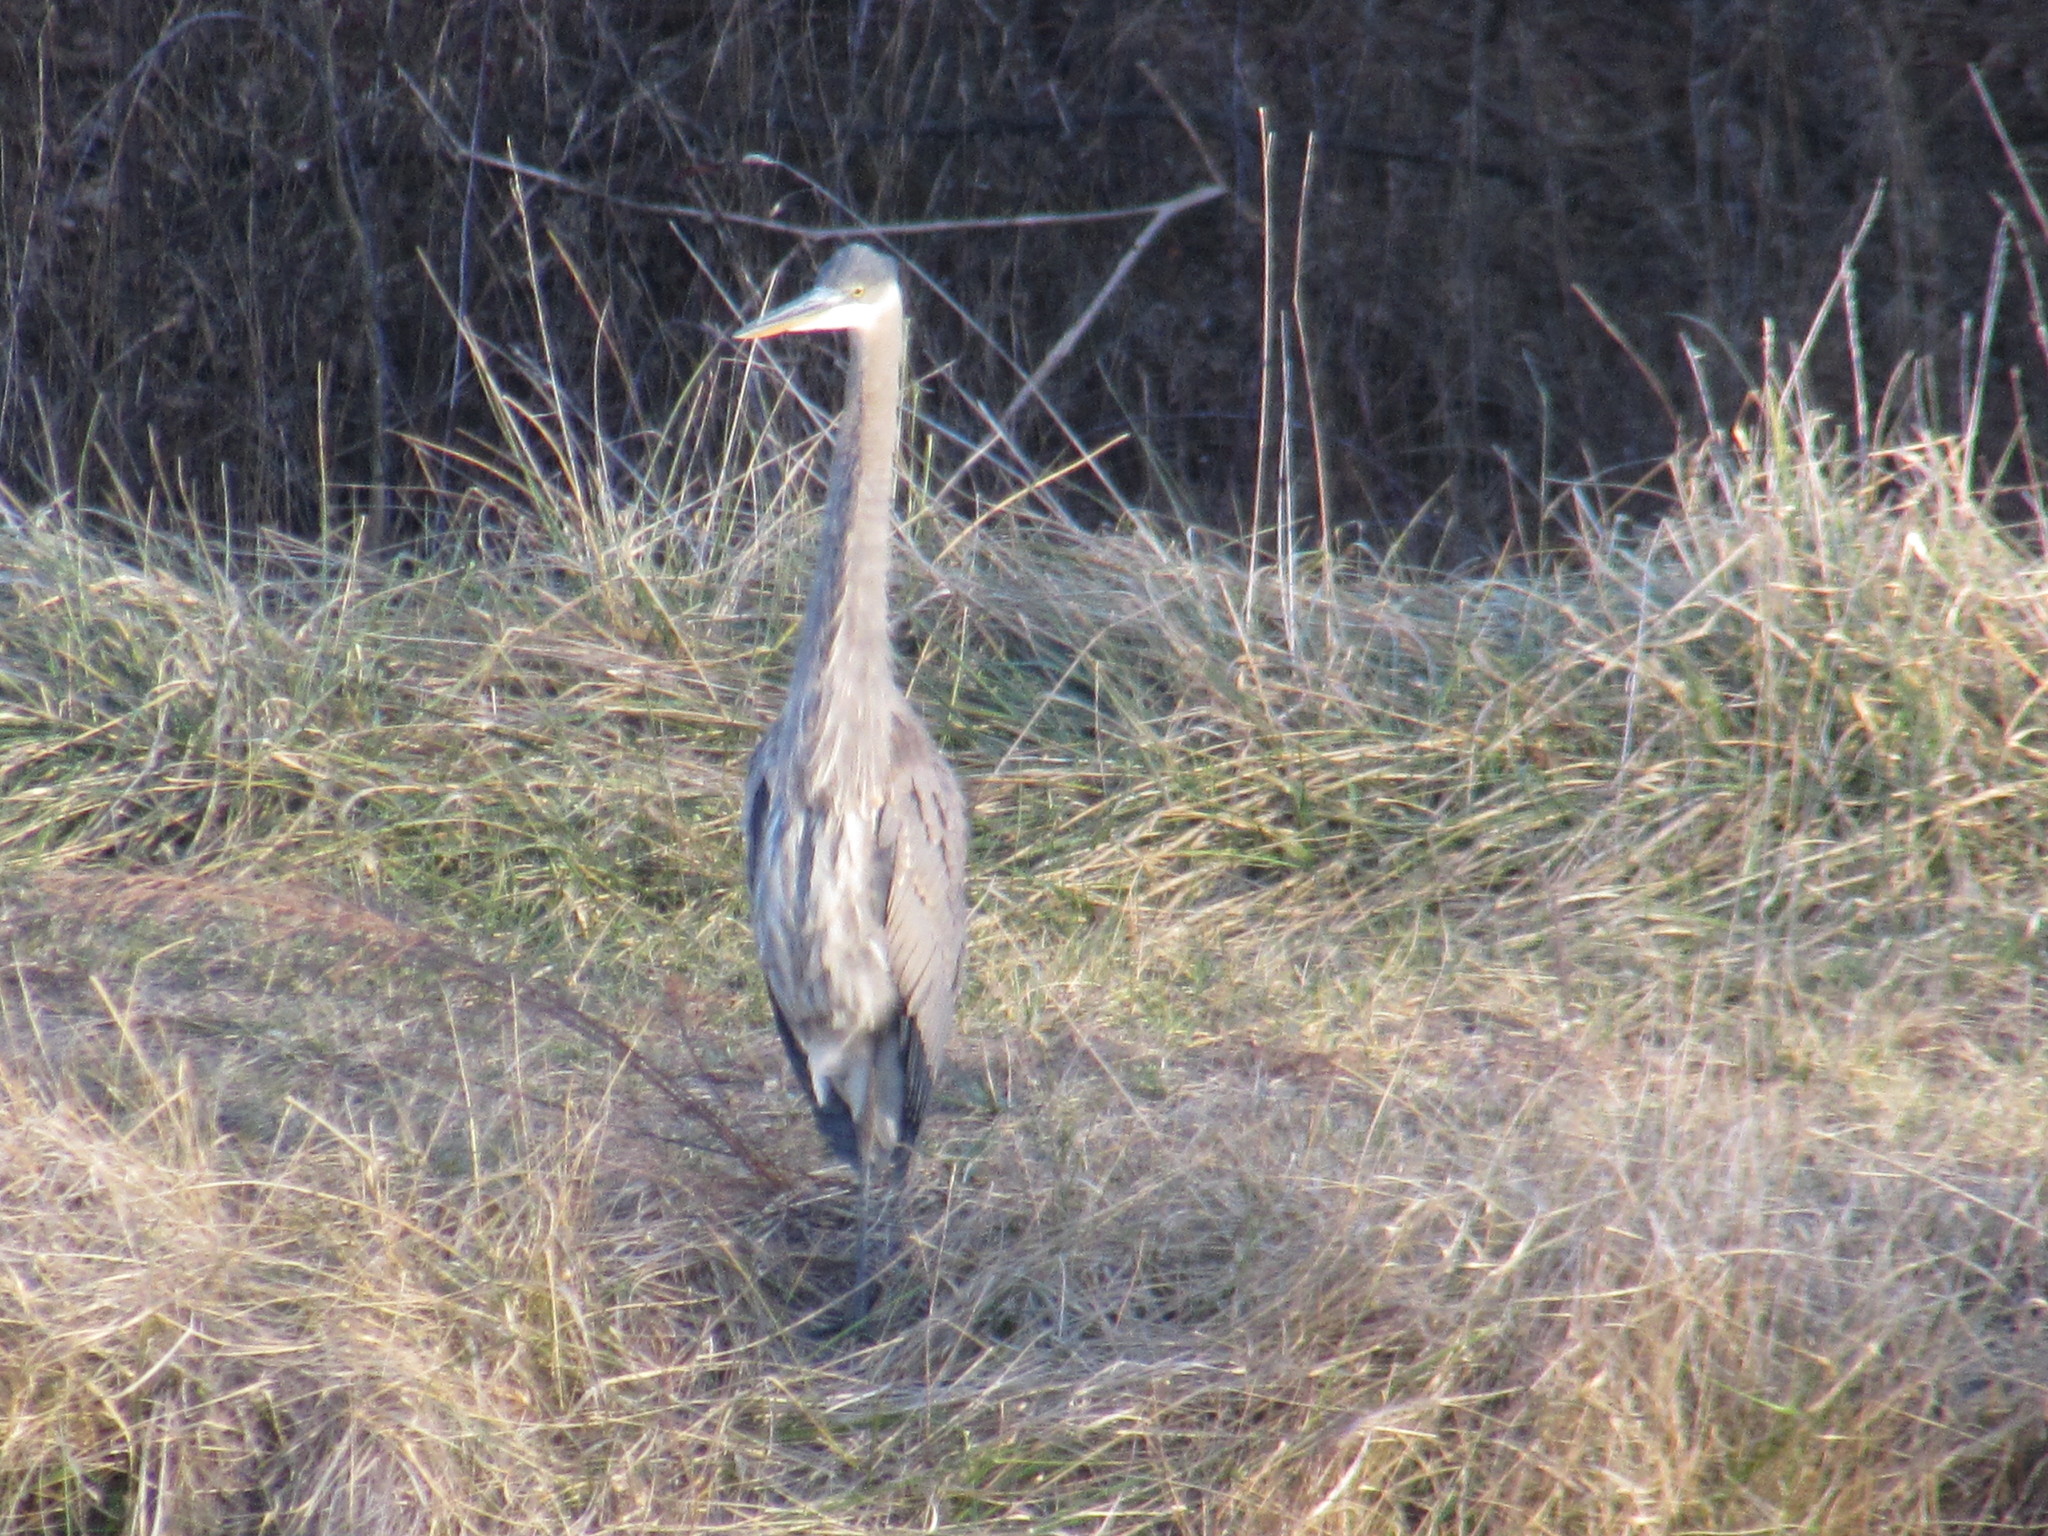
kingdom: Animalia
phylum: Chordata
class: Aves
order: Pelecaniformes
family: Ardeidae
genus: Ardea
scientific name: Ardea herodias
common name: Great blue heron
